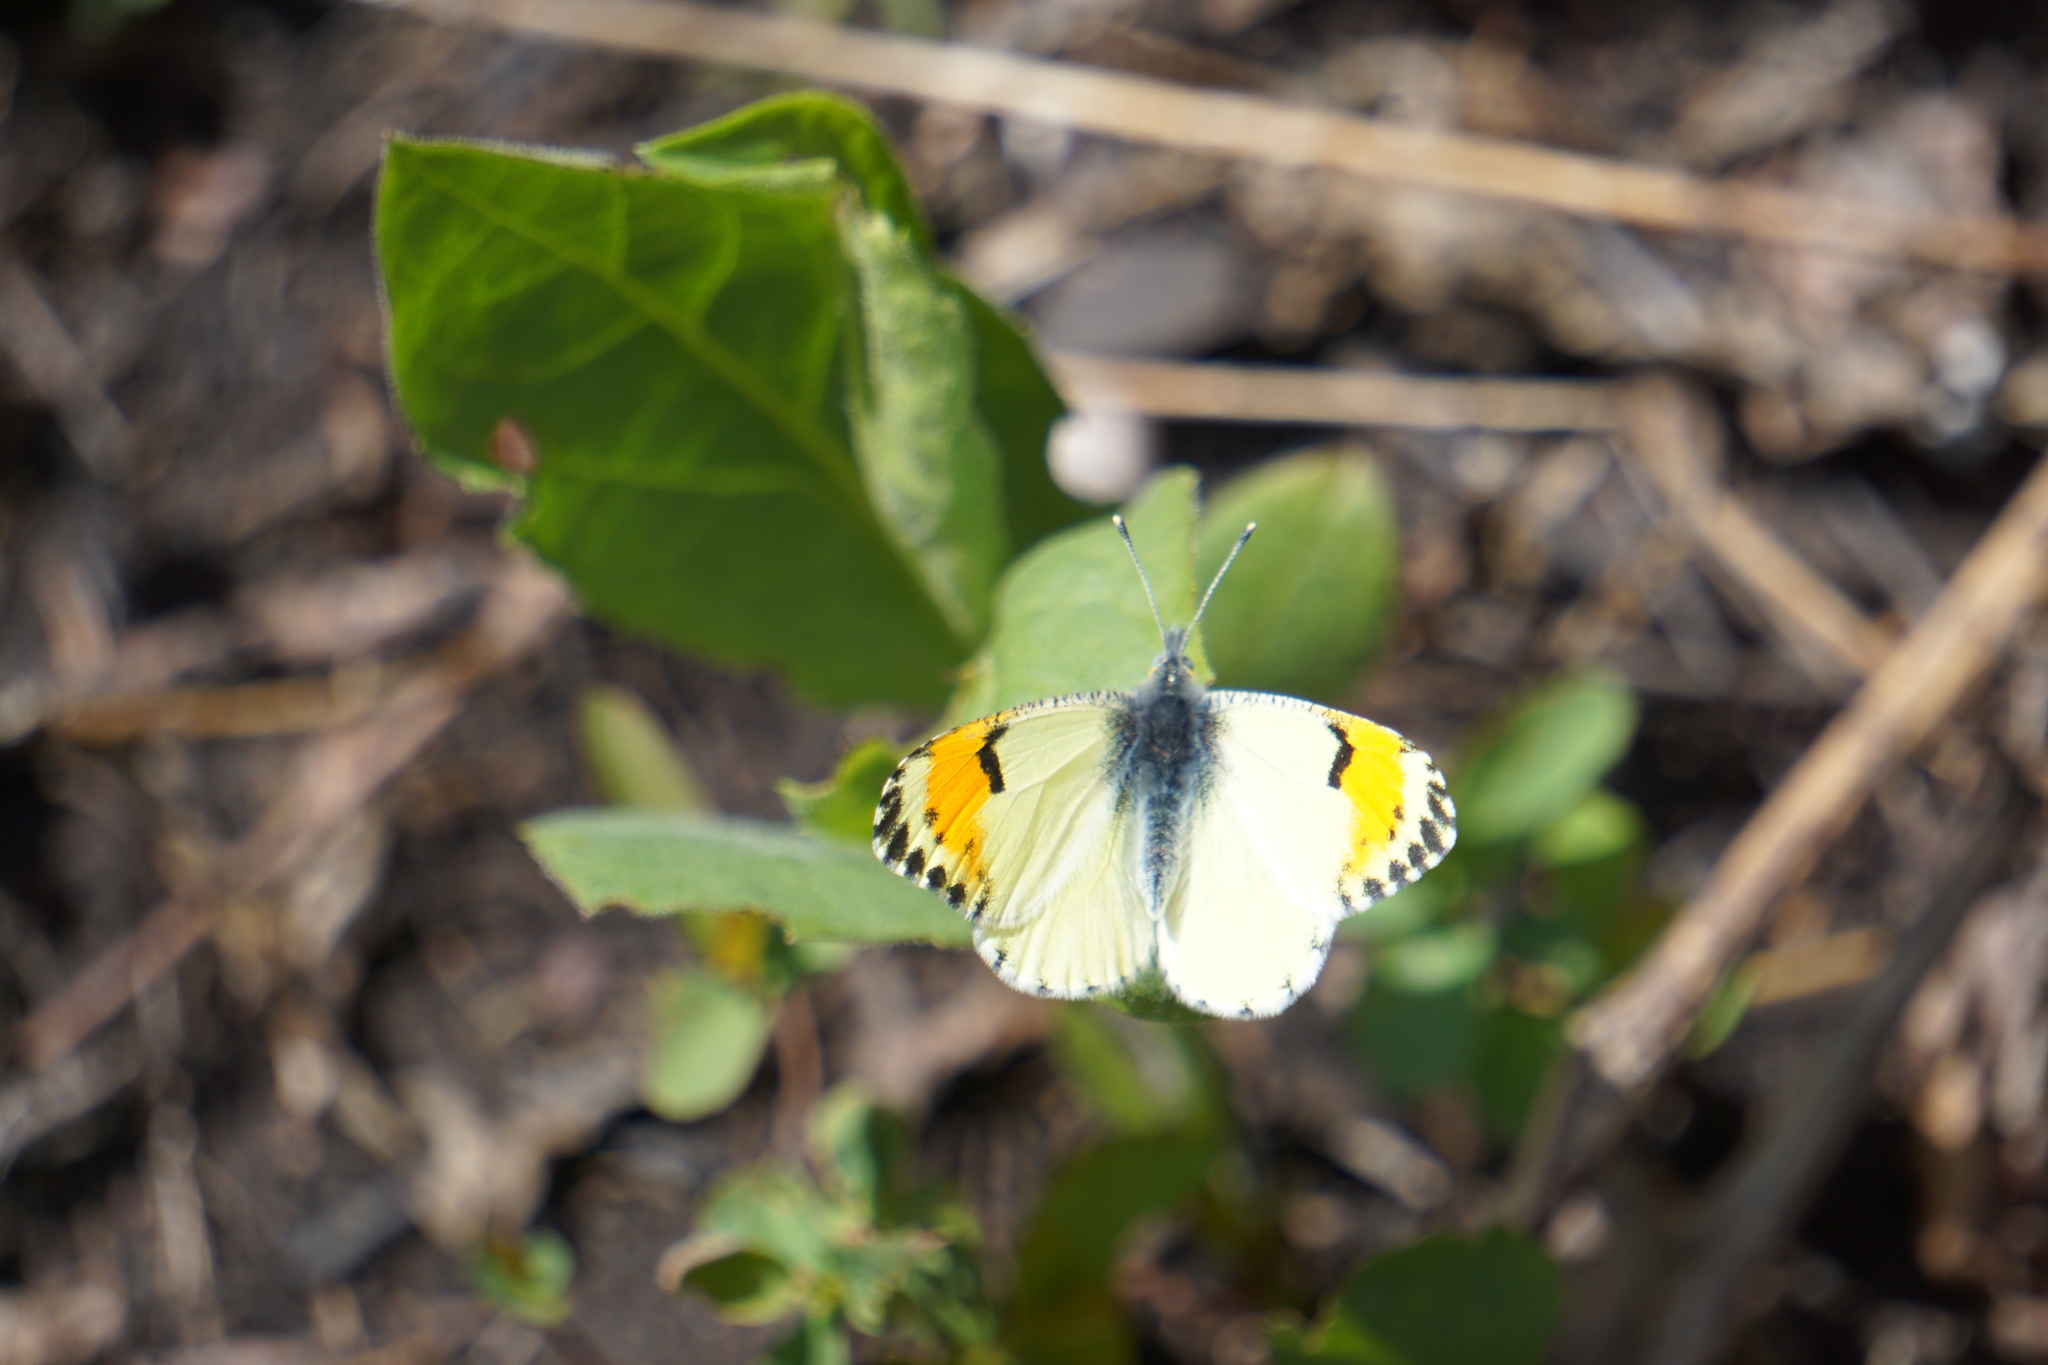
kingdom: Animalia
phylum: Arthropoda
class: Insecta
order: Lepidoptera
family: Pieridae
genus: Anthocharis
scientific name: Anthocharis julia
